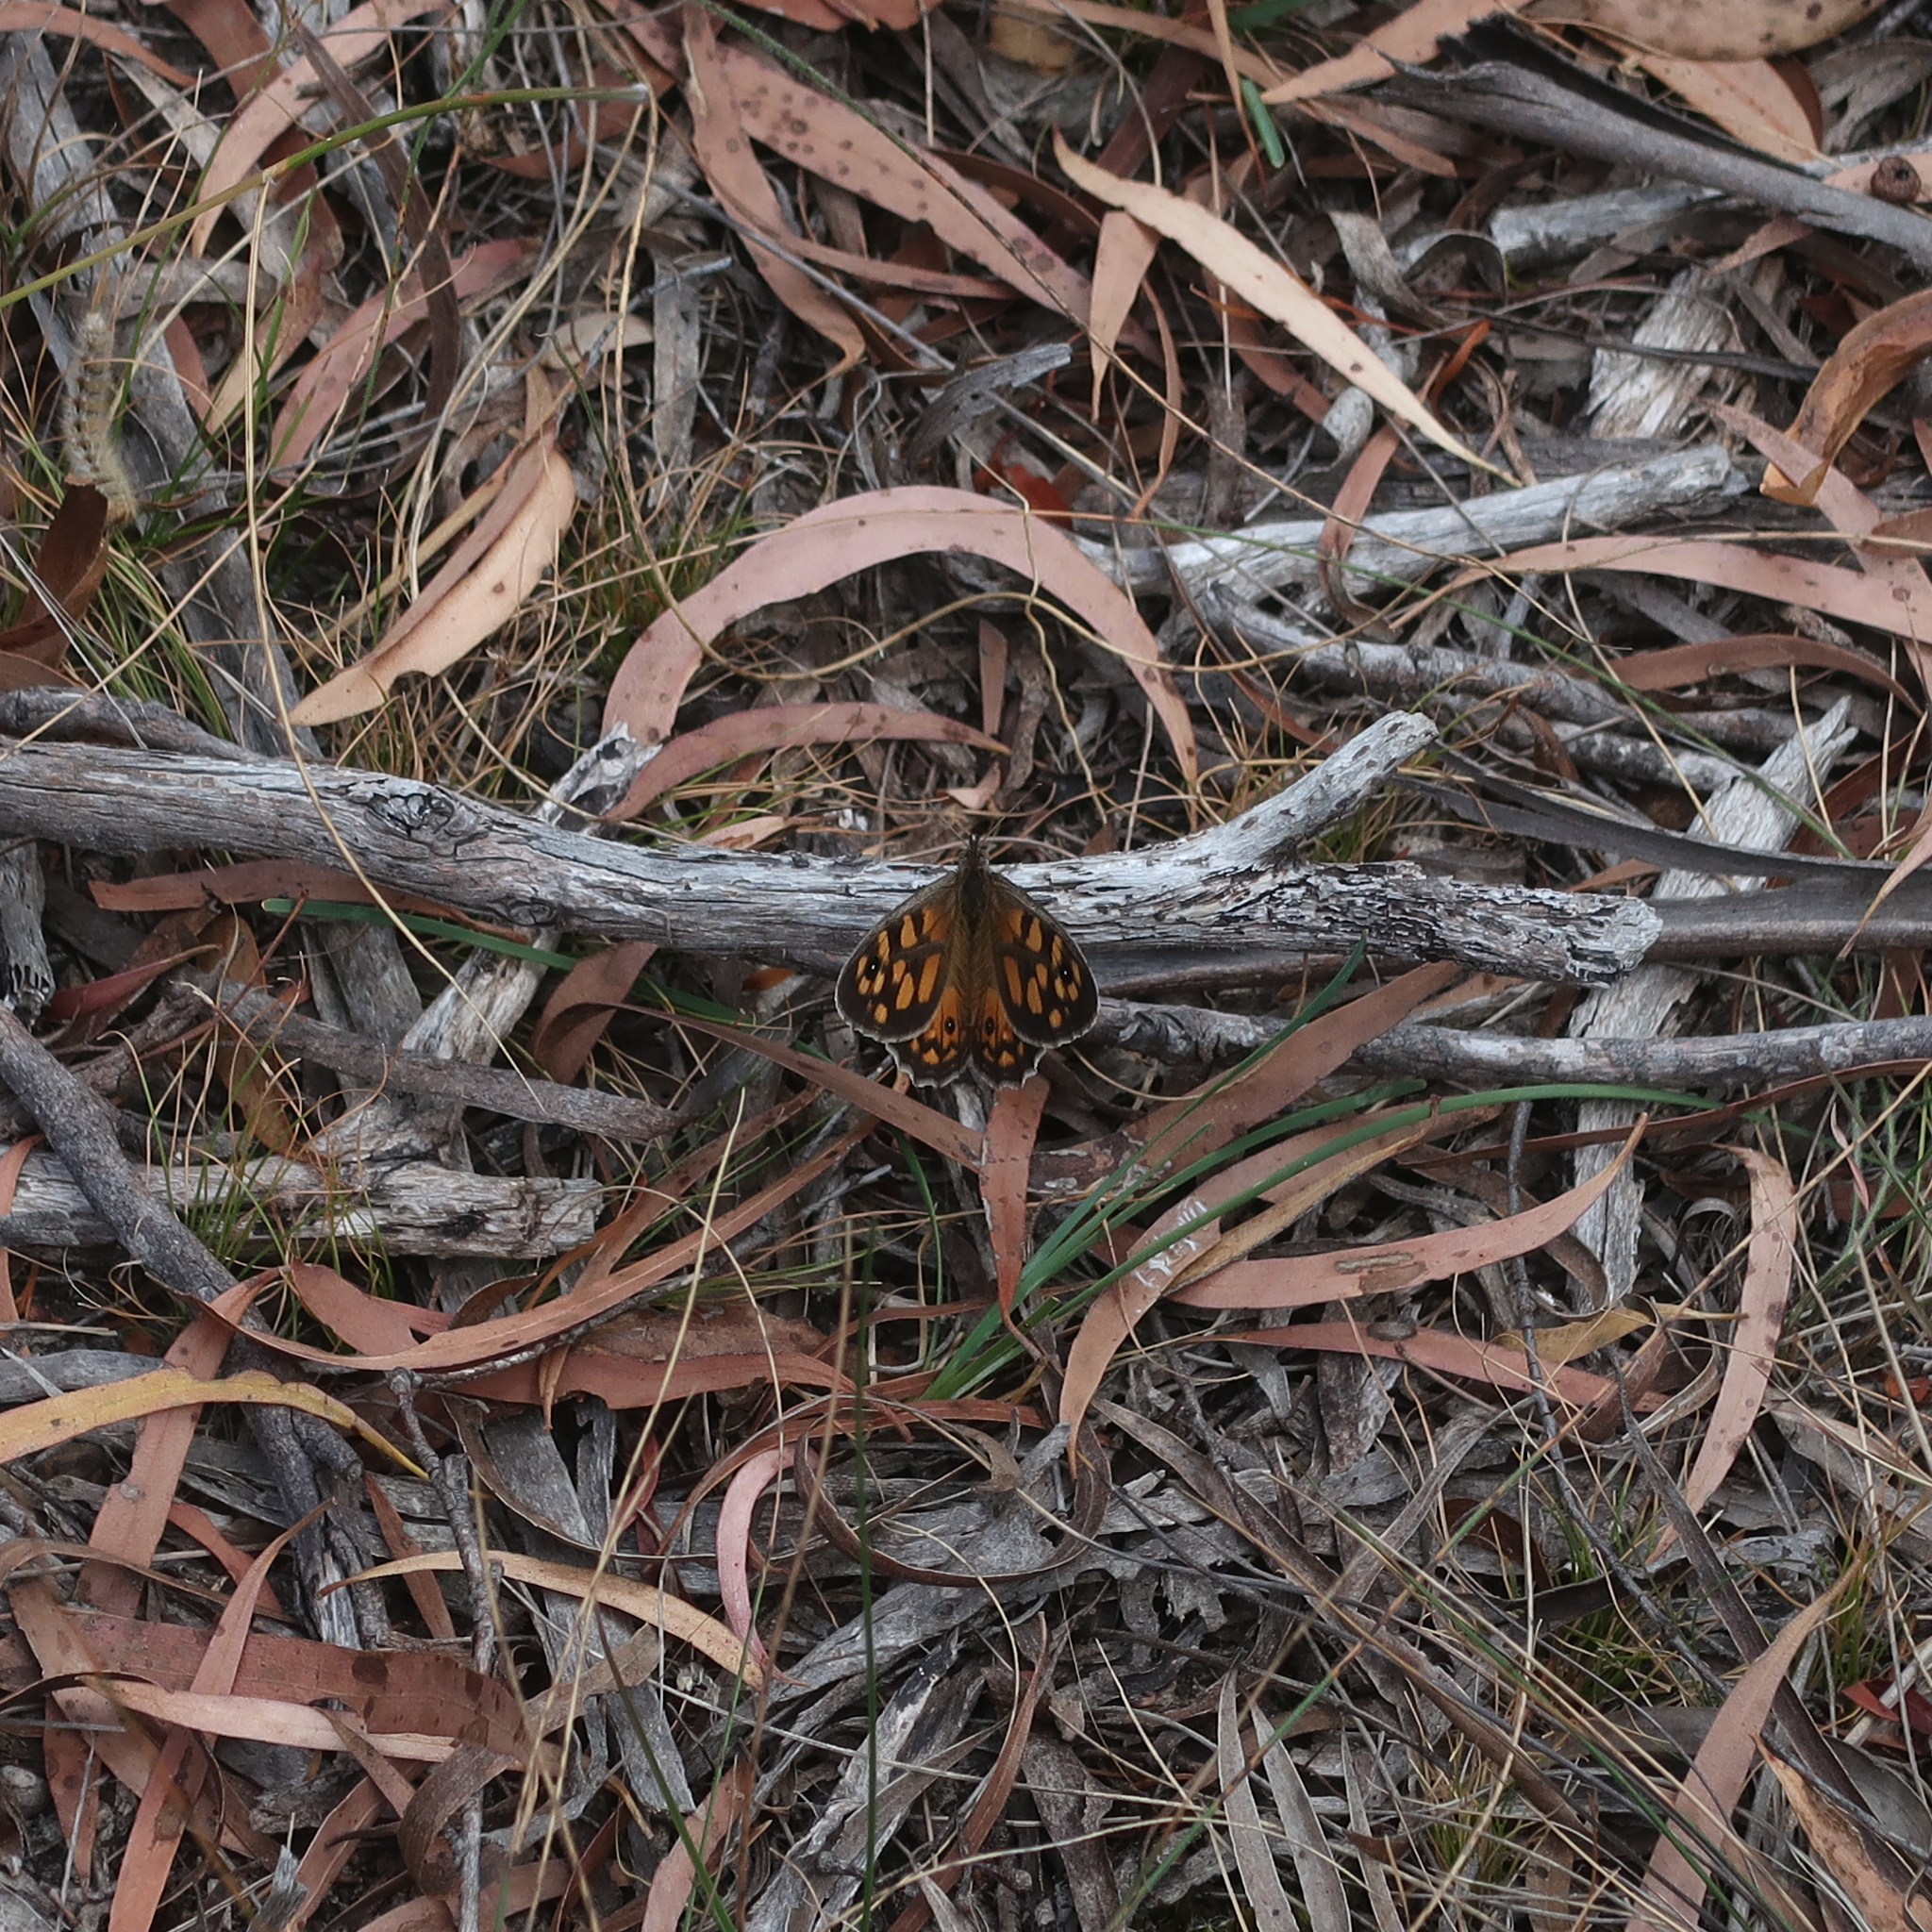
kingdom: Animalia
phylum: Arthropoda
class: Insecta
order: Lepidoptera
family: Nymphalidae
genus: Geitoneura
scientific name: Geitoneura klugii
